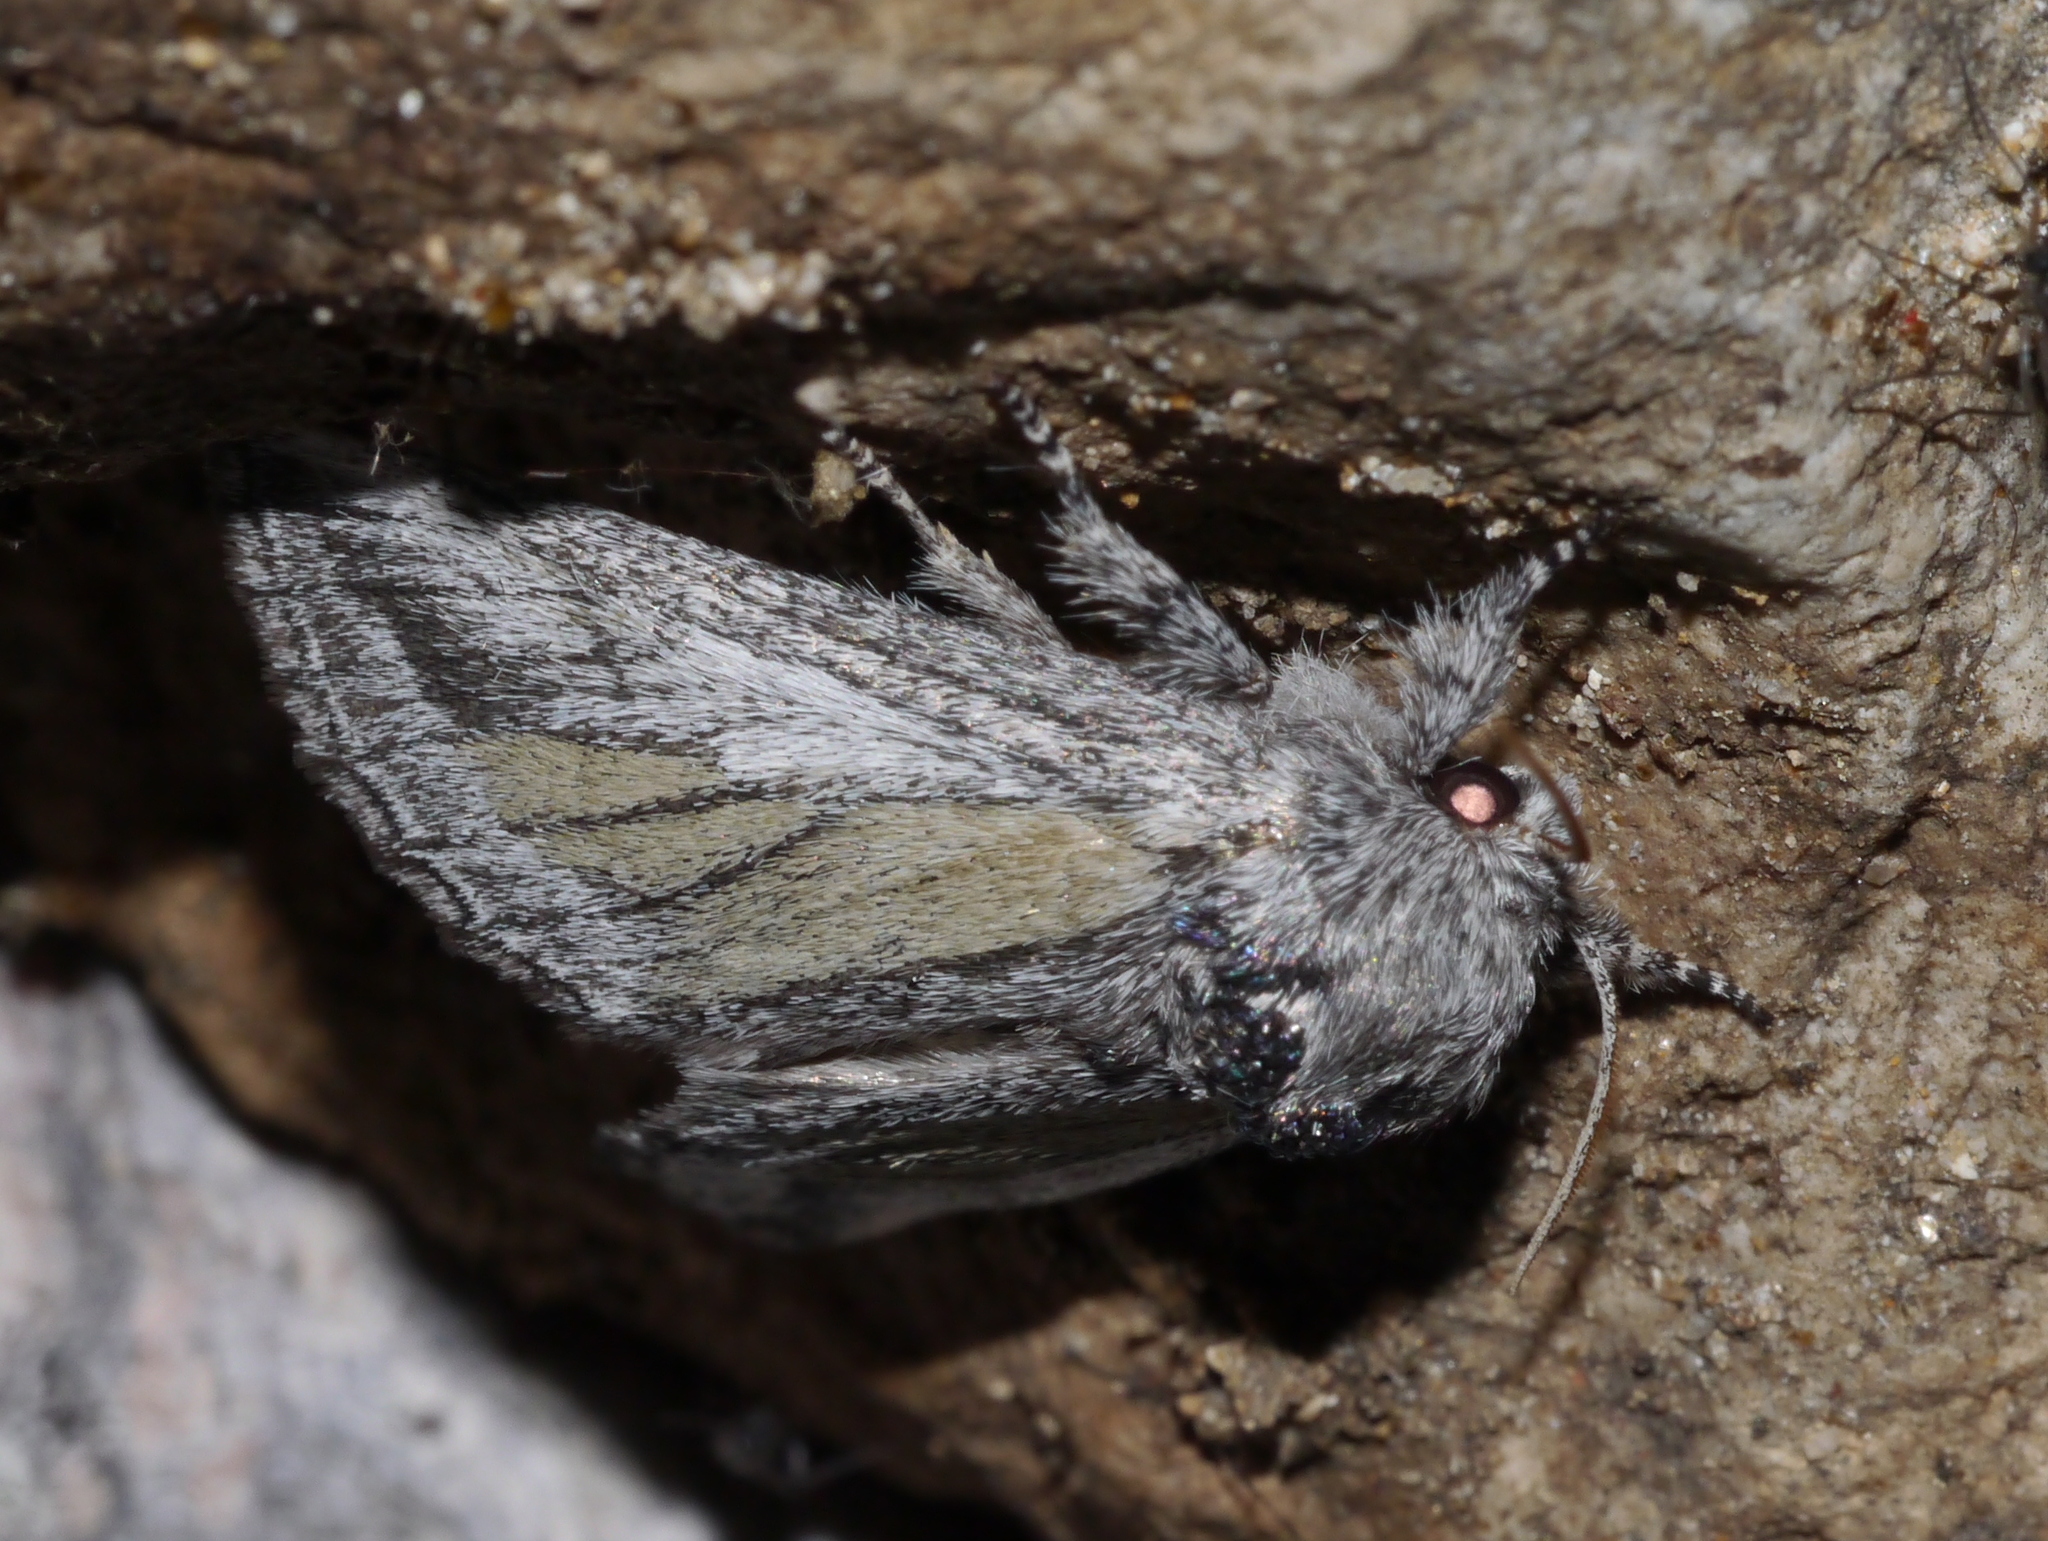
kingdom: Animalia
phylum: Arthropoda
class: Insecta
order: Lepidoptera
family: Notodontidae
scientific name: Notodontidae
